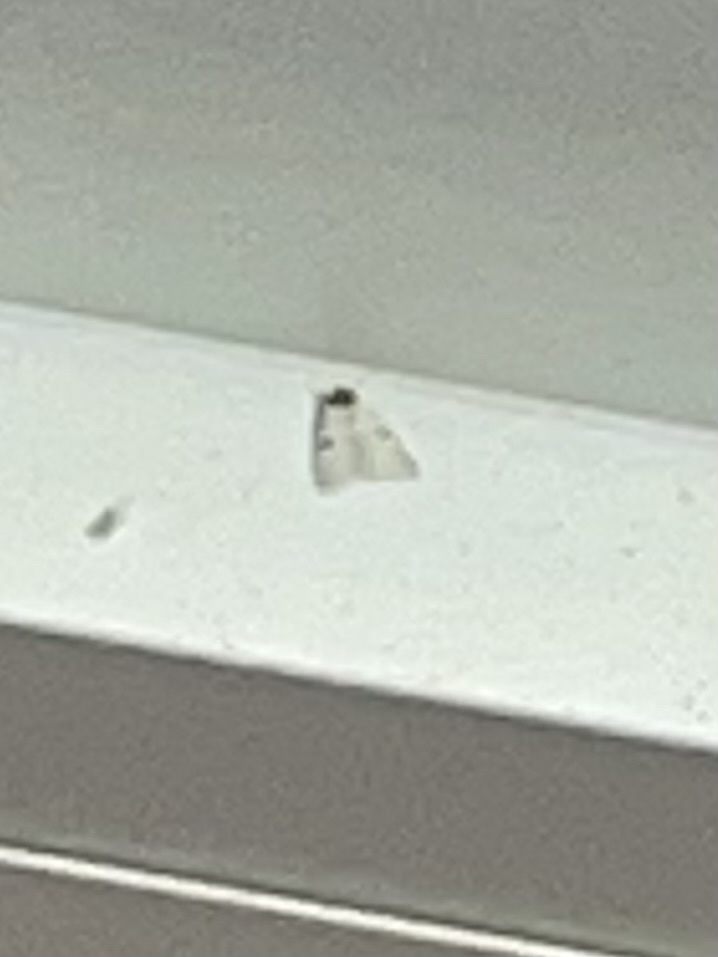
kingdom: Animalia
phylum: Arthropoda
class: Insecta
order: Lepidoptera
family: Erebidae
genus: Catocala
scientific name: Catocala relicta
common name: White underwing
